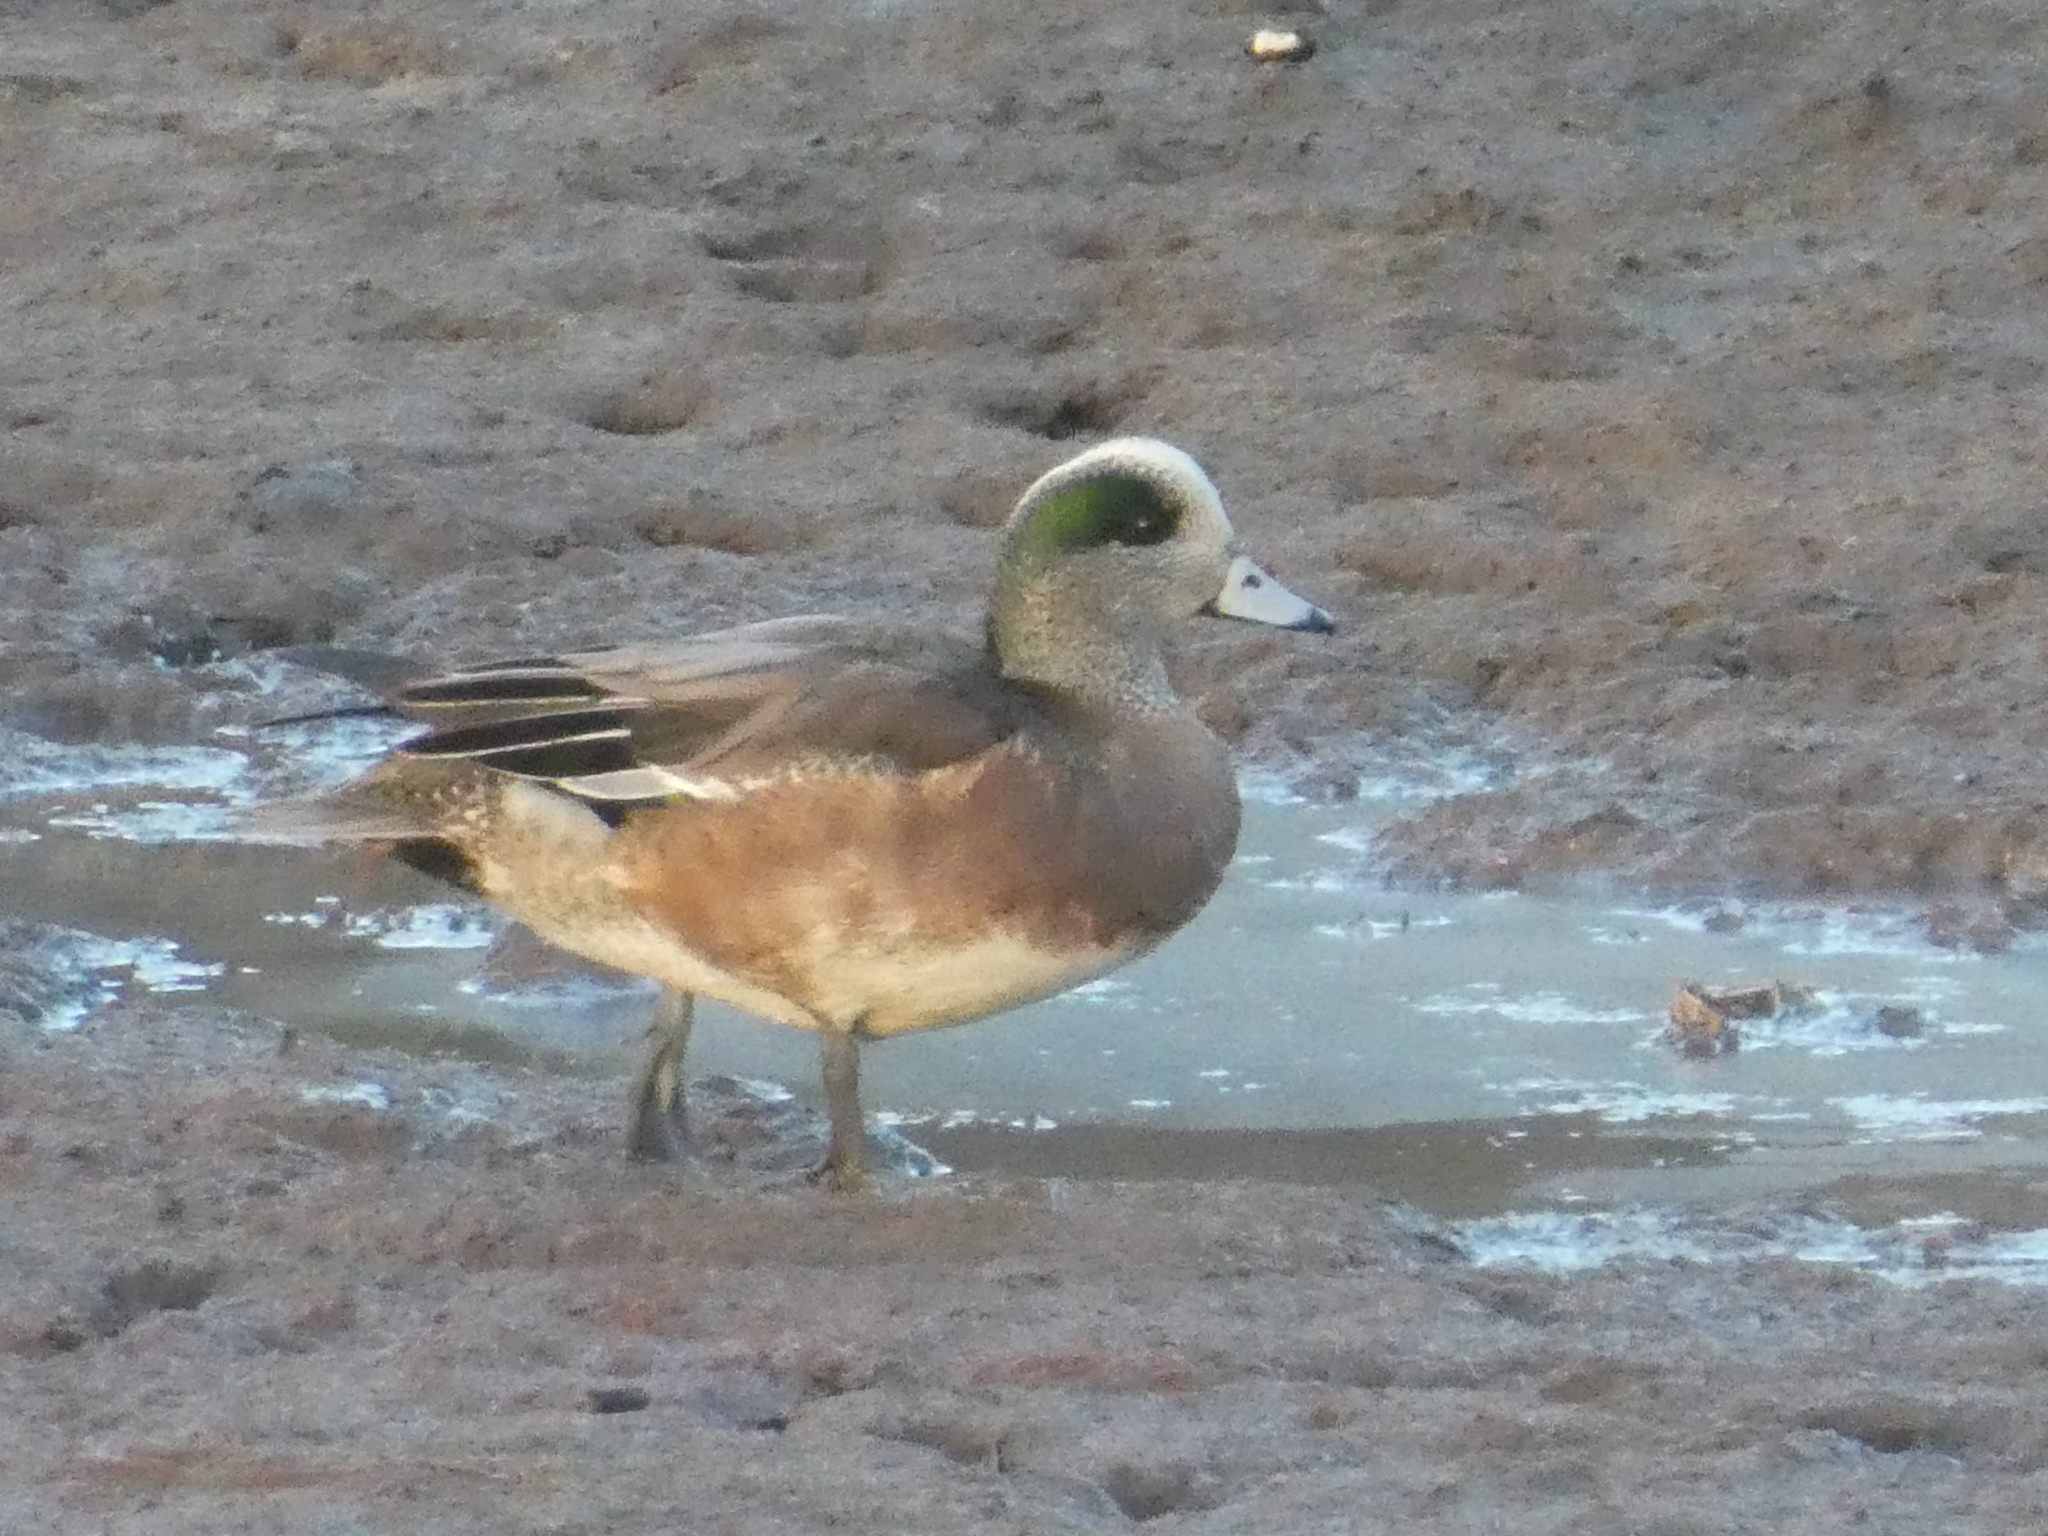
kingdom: Animalia
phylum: Chordata
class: Aves
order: Anseriformes
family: Anatidae
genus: Mareca
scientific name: Mareca americana
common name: American wigeon
